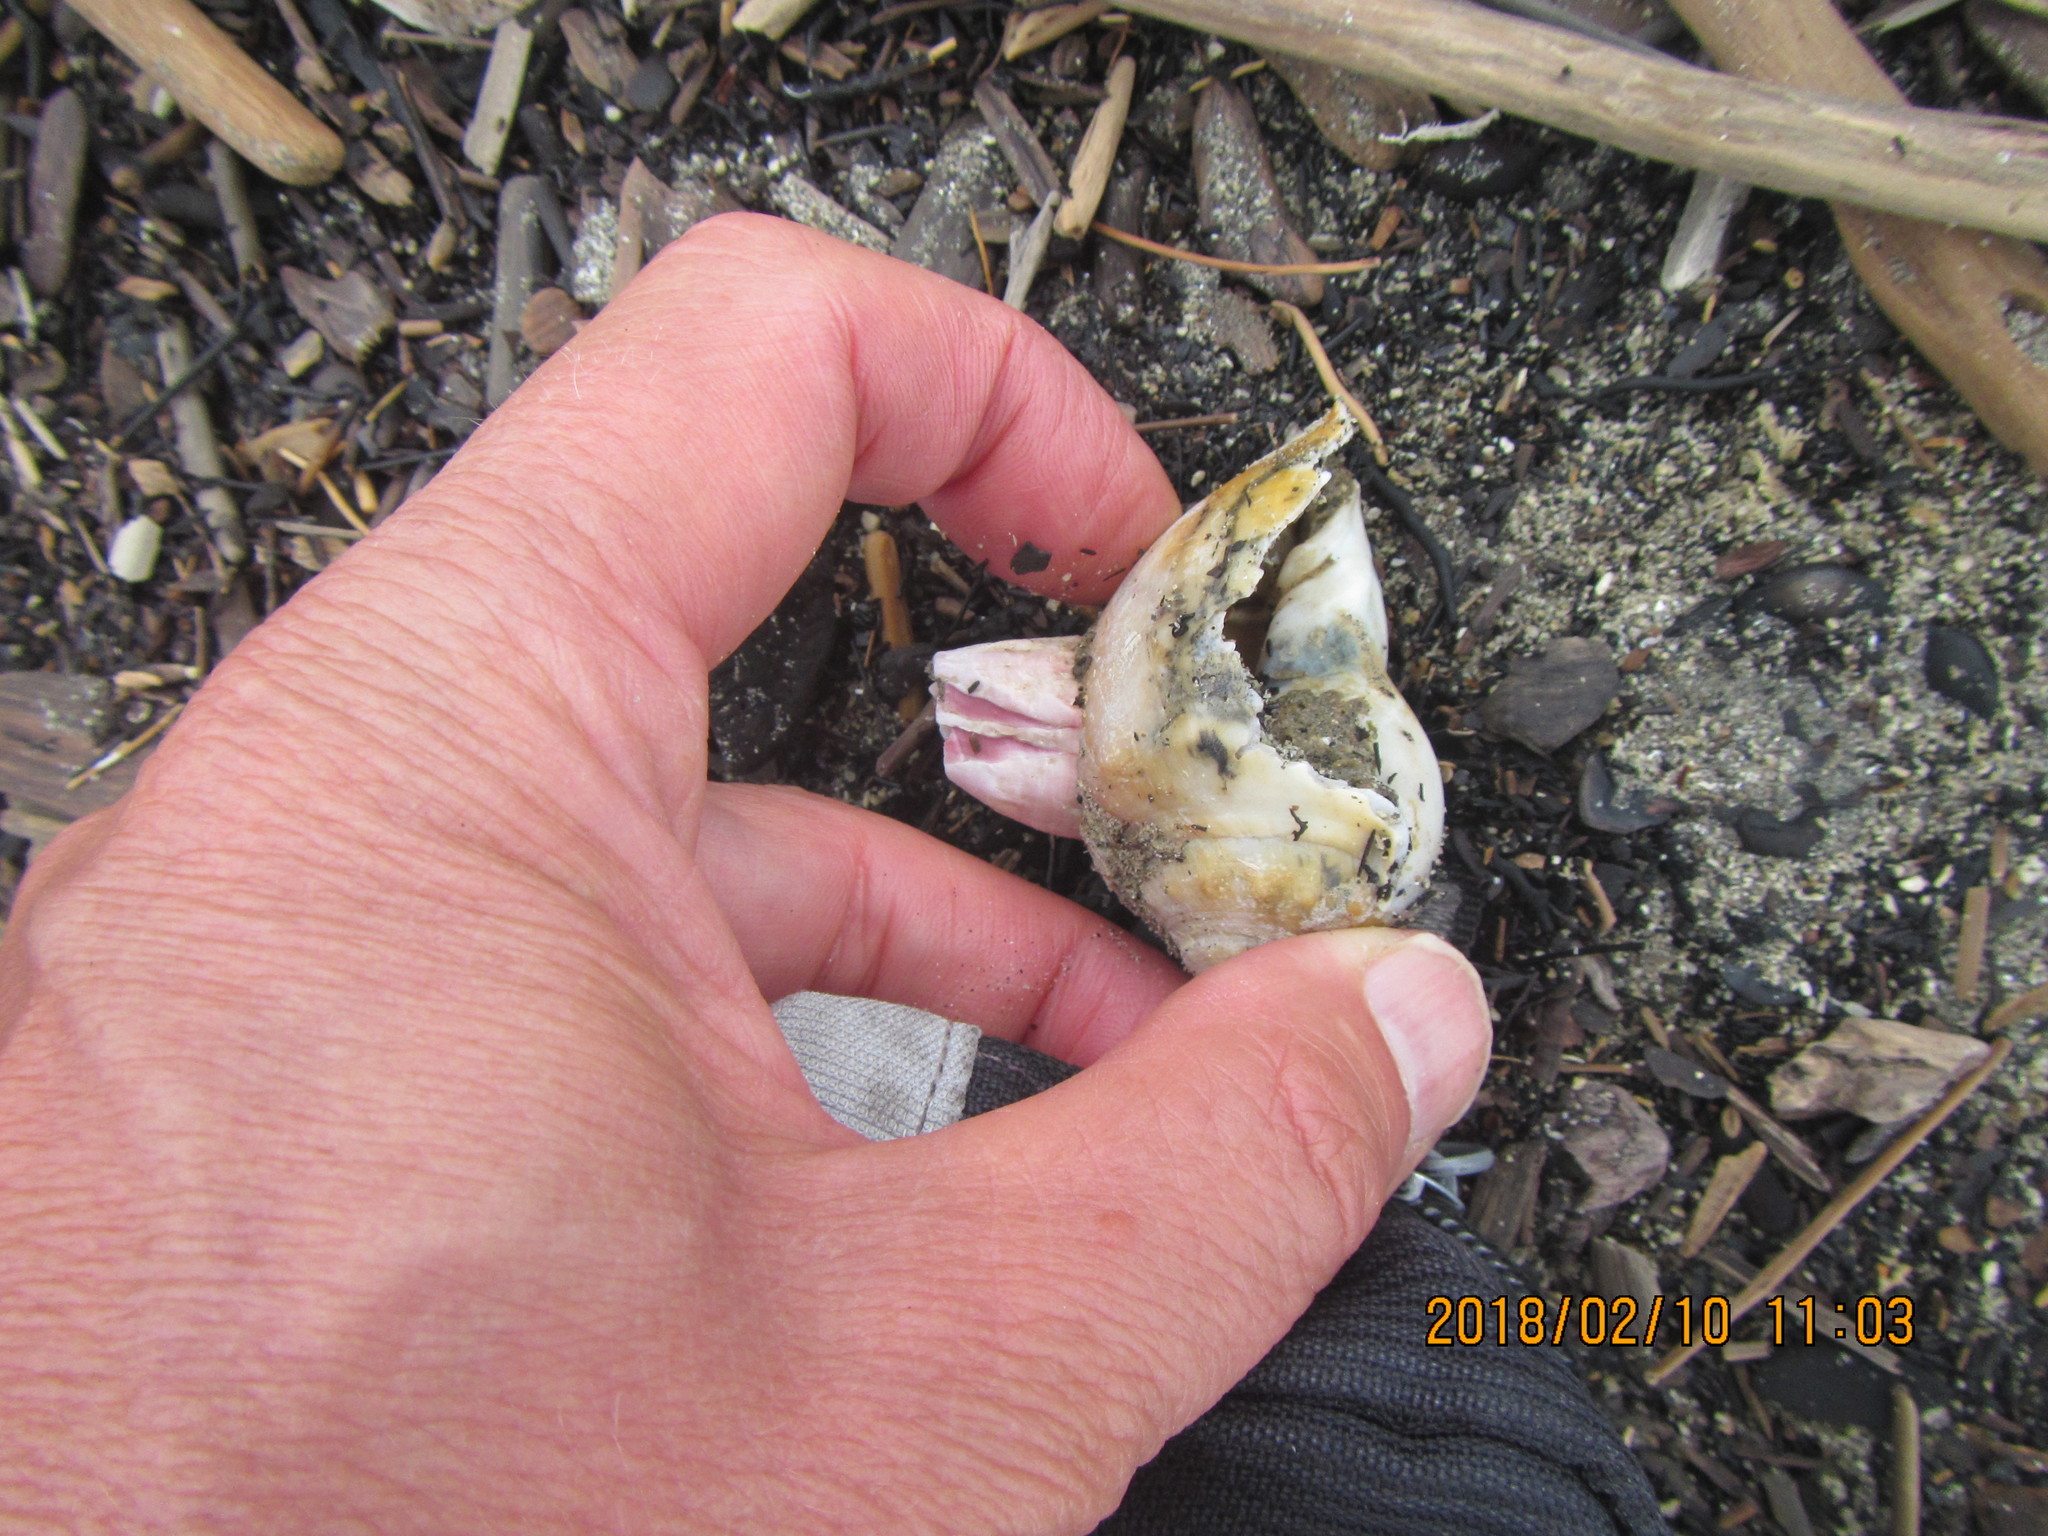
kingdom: Animalia
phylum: Arthropoda
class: Maxillopoda
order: Sessilia
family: Balanidae
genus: Notomegabalanus
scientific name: Notomegabalanus decorus
